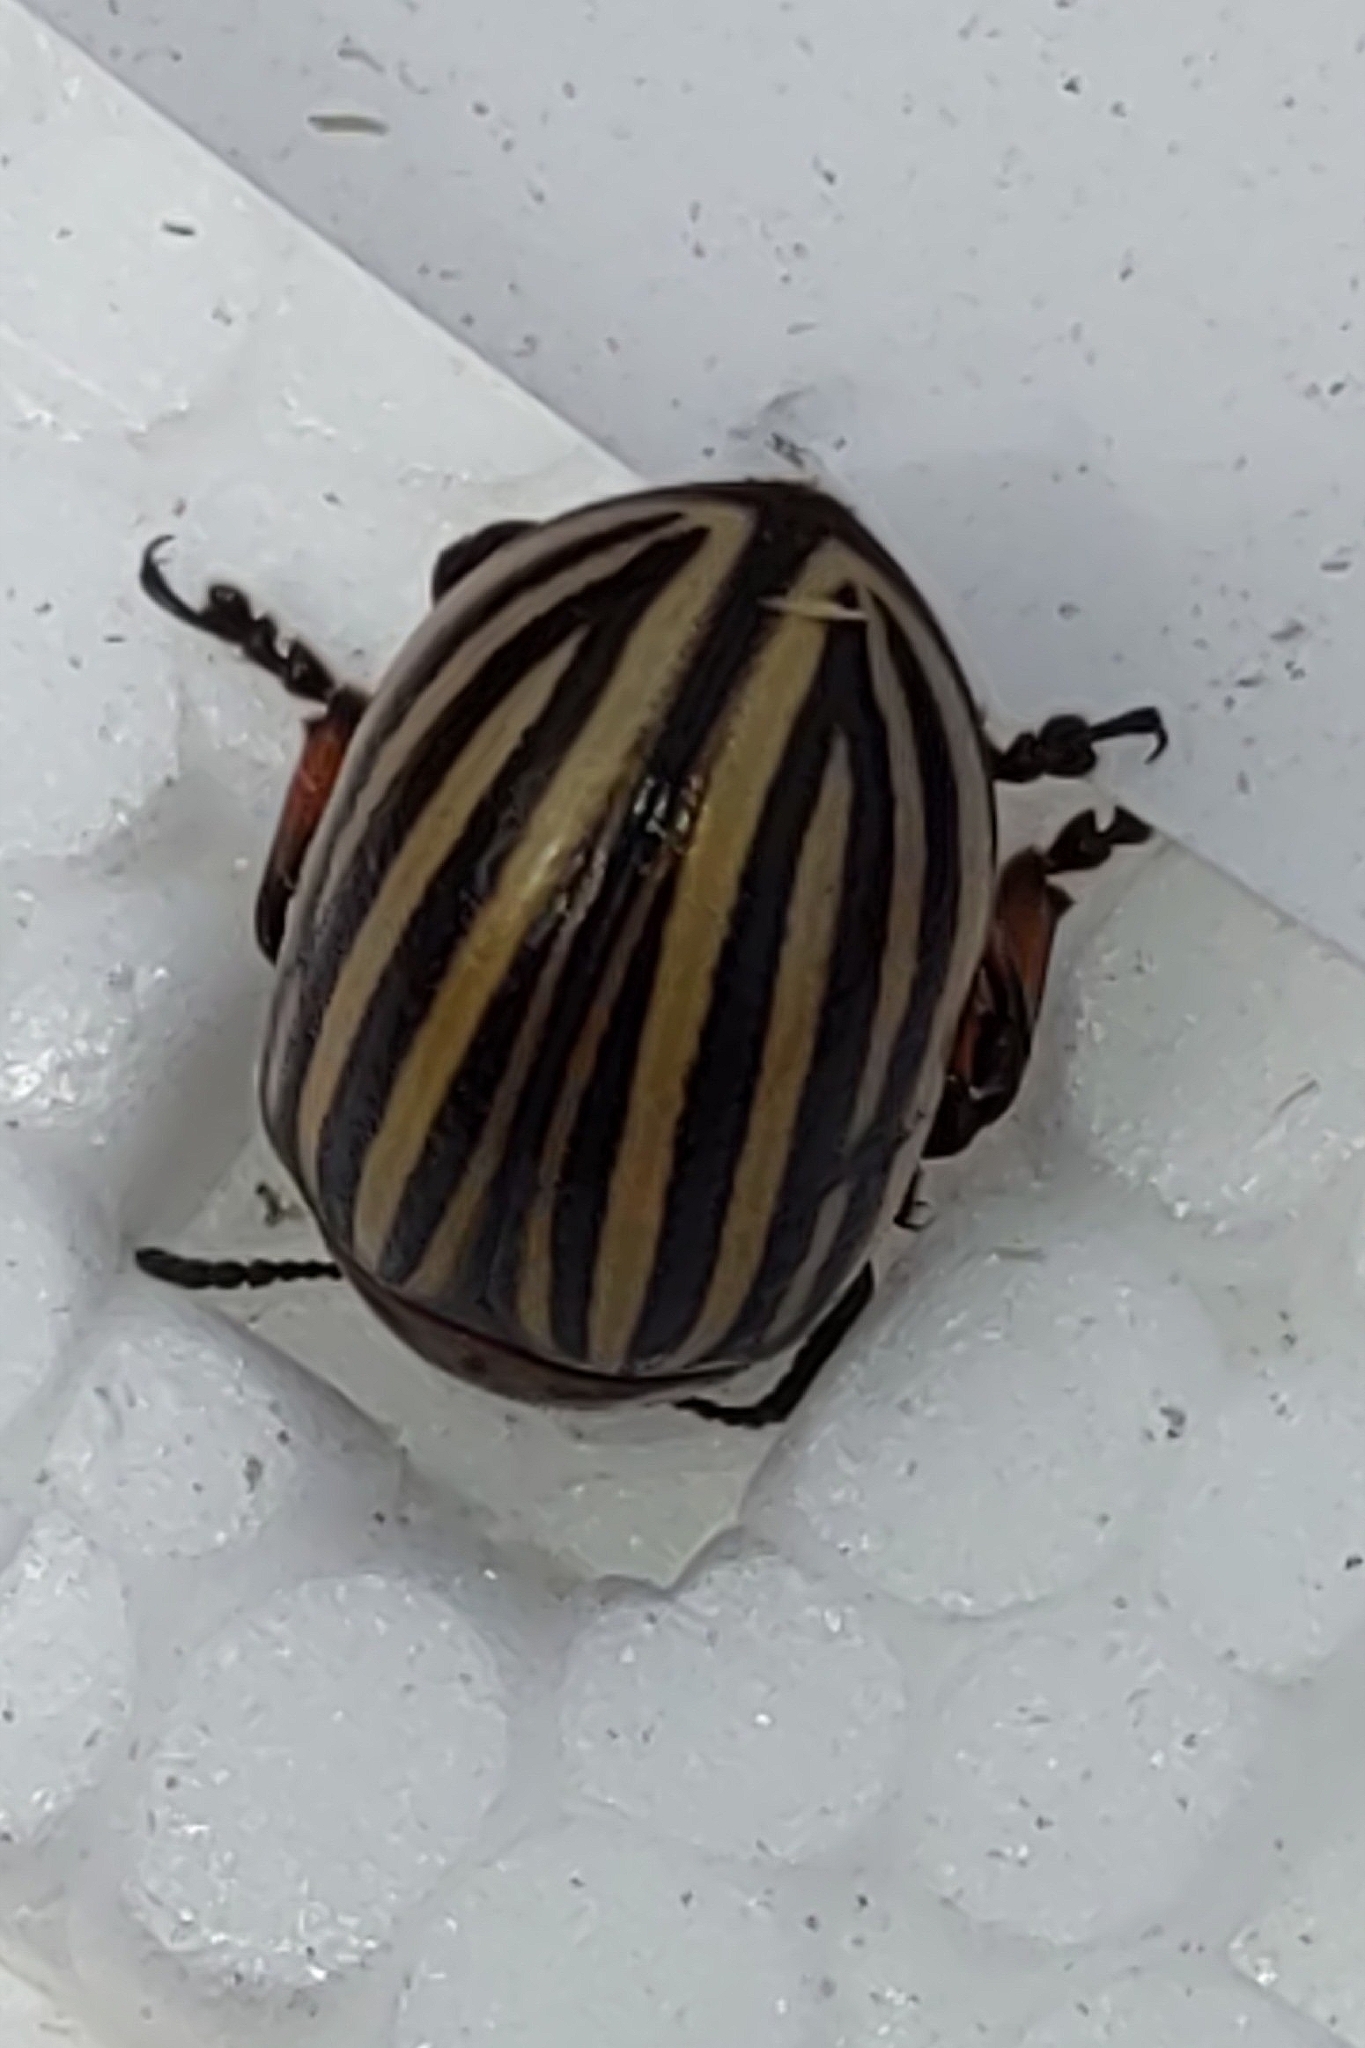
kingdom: Animalia
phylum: Arthropoda
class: Insecta
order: Coleoptera
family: Chrysomelidae
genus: Leptinotarsa
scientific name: Leptinotarsa decemlineata
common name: Colorado potato beetle
